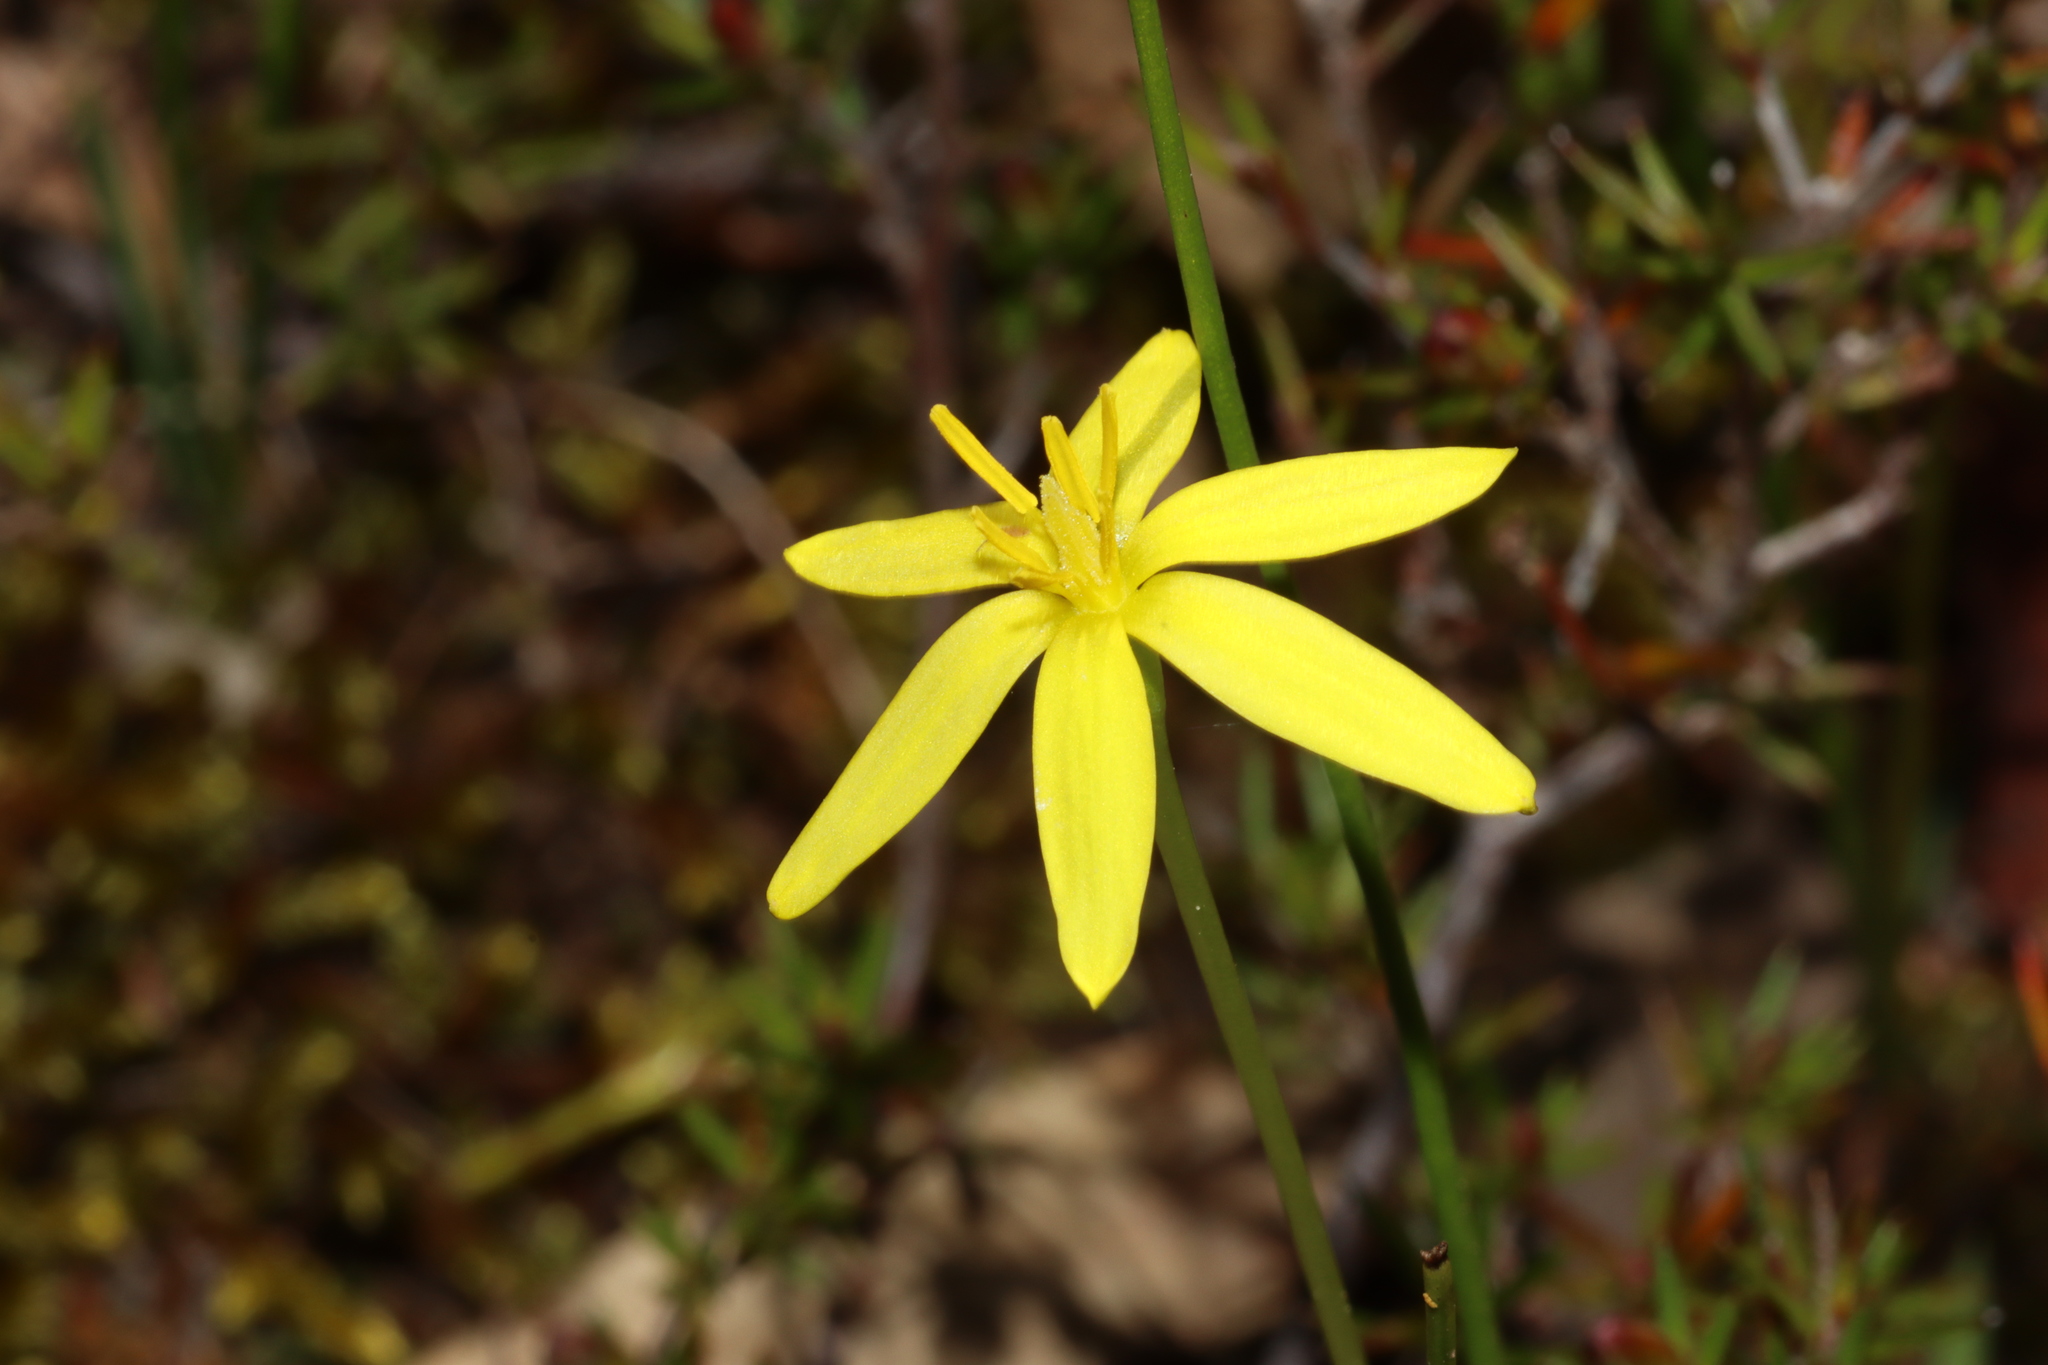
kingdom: Plantae
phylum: Tracheophyta
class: Liliopsida
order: Asparagales
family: Hypoxidaceae
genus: Pauridia
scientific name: Pauridia vaginata
